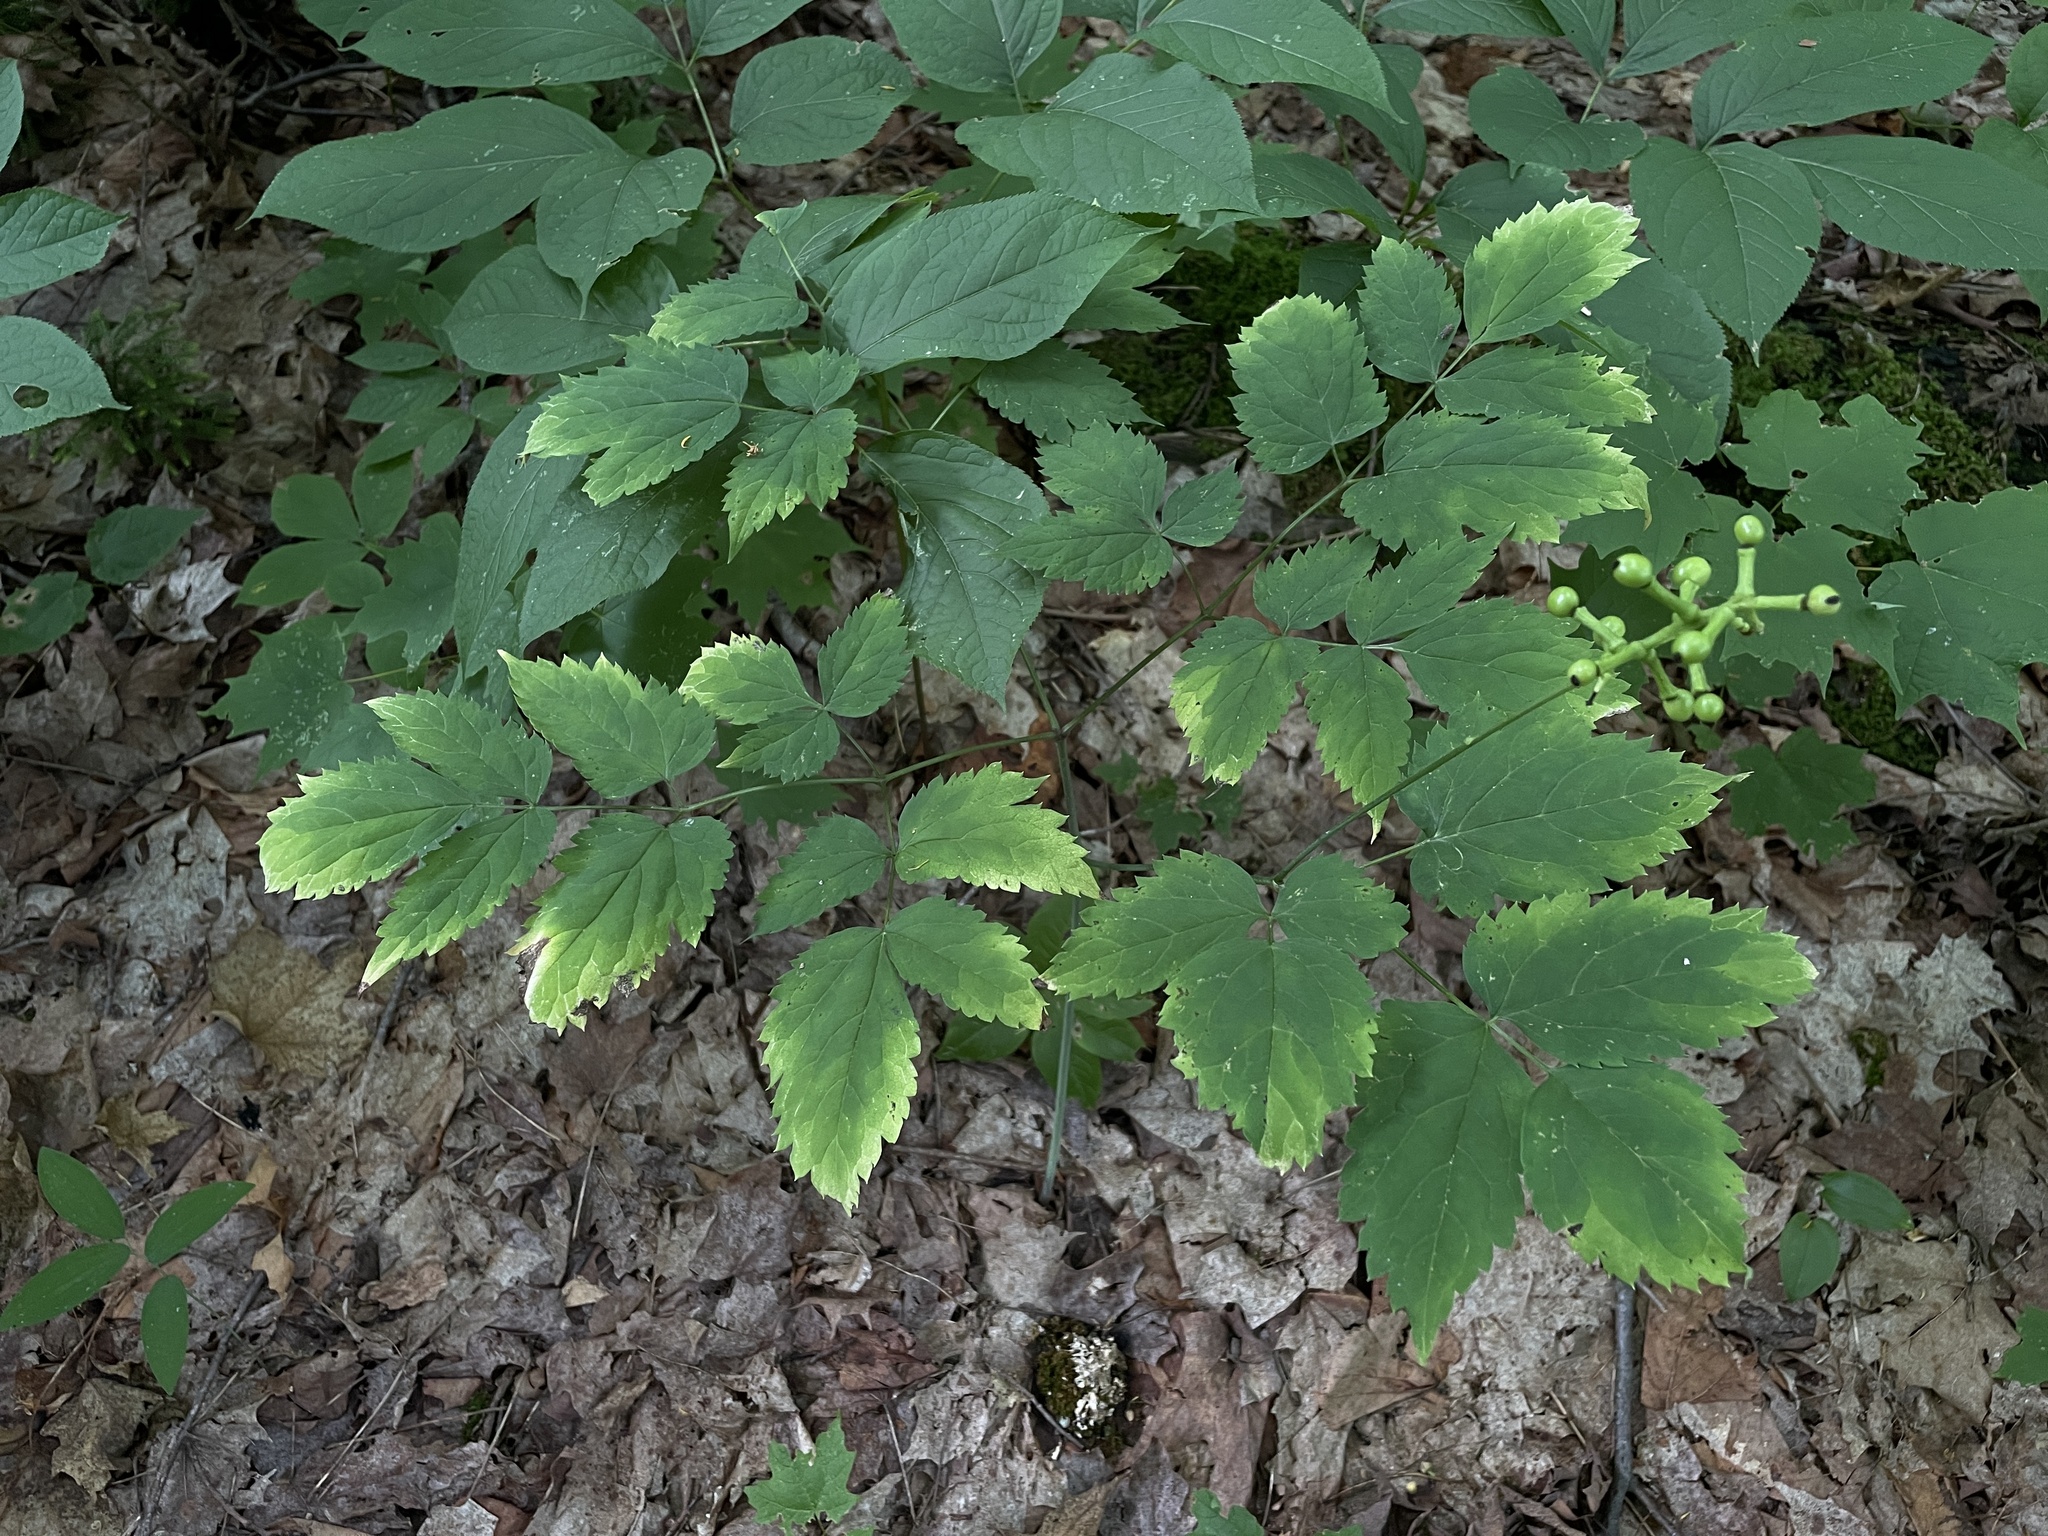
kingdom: Plantae
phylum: Tracheophyta
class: Magnoliopsida
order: Ranunculales
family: Ranunculaceae
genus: Actaea
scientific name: Actaea pachypoda
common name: Doll's-eyes
